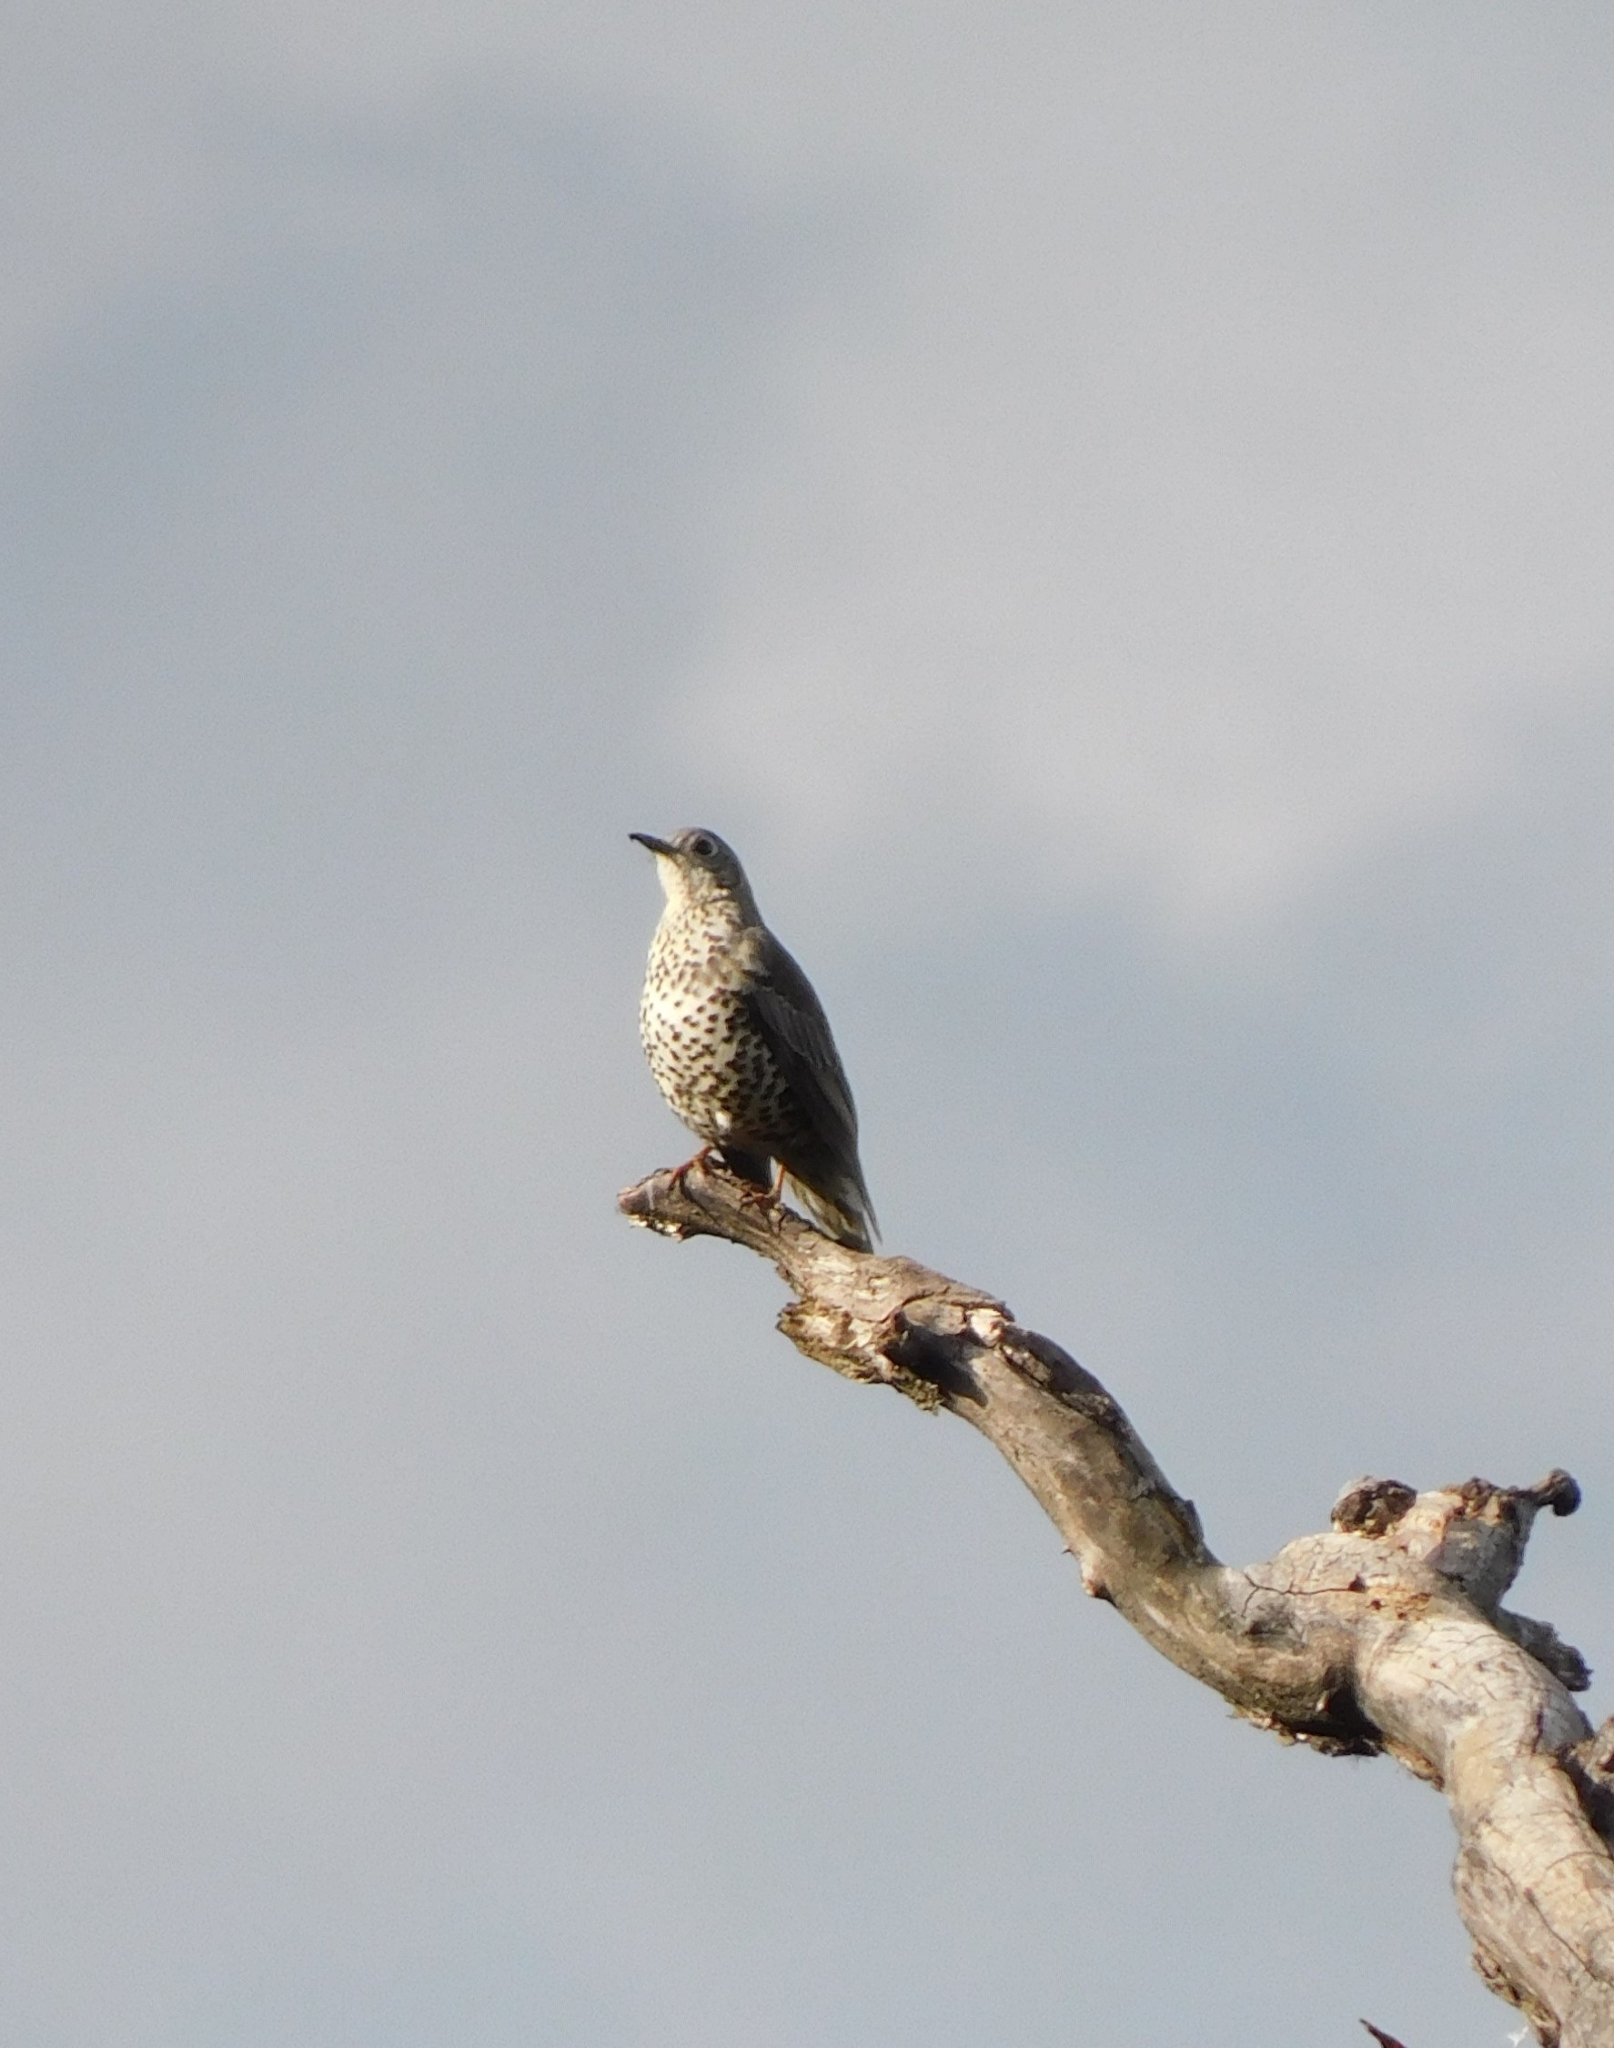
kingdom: Animalia
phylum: Chordata
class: Aves
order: Passeriformes
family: Turdidae
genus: Turdus
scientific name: Turdus viscivorus
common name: Mistle thrush
